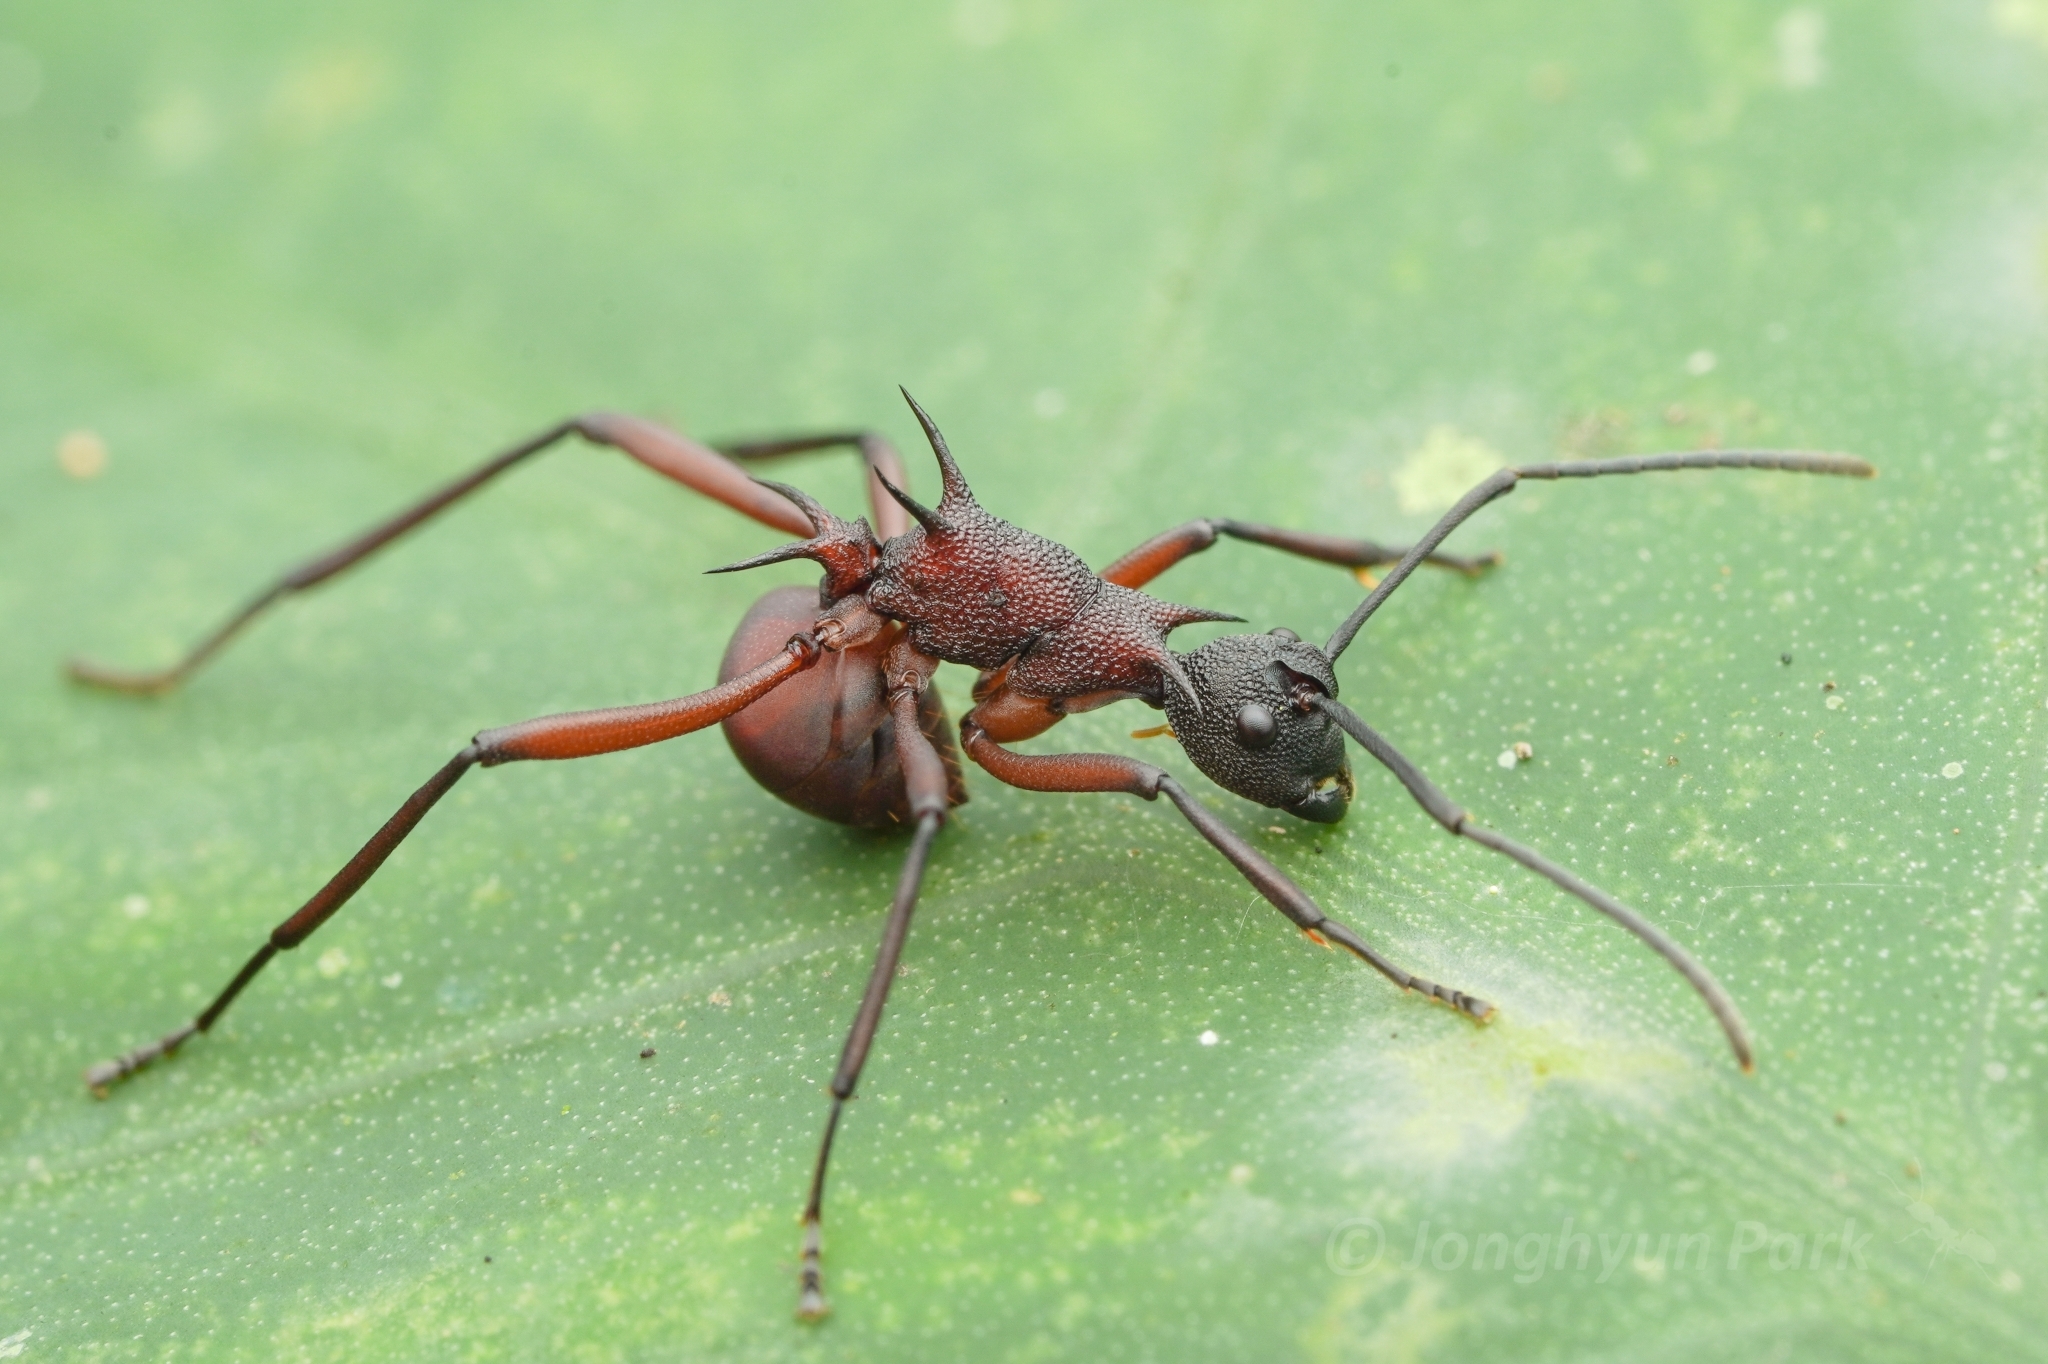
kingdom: Animalia
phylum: Arthropoda
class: Insecta
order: Hymenoptera
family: Formicidae
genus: Polyrhachis
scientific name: Polyrhachis armata
